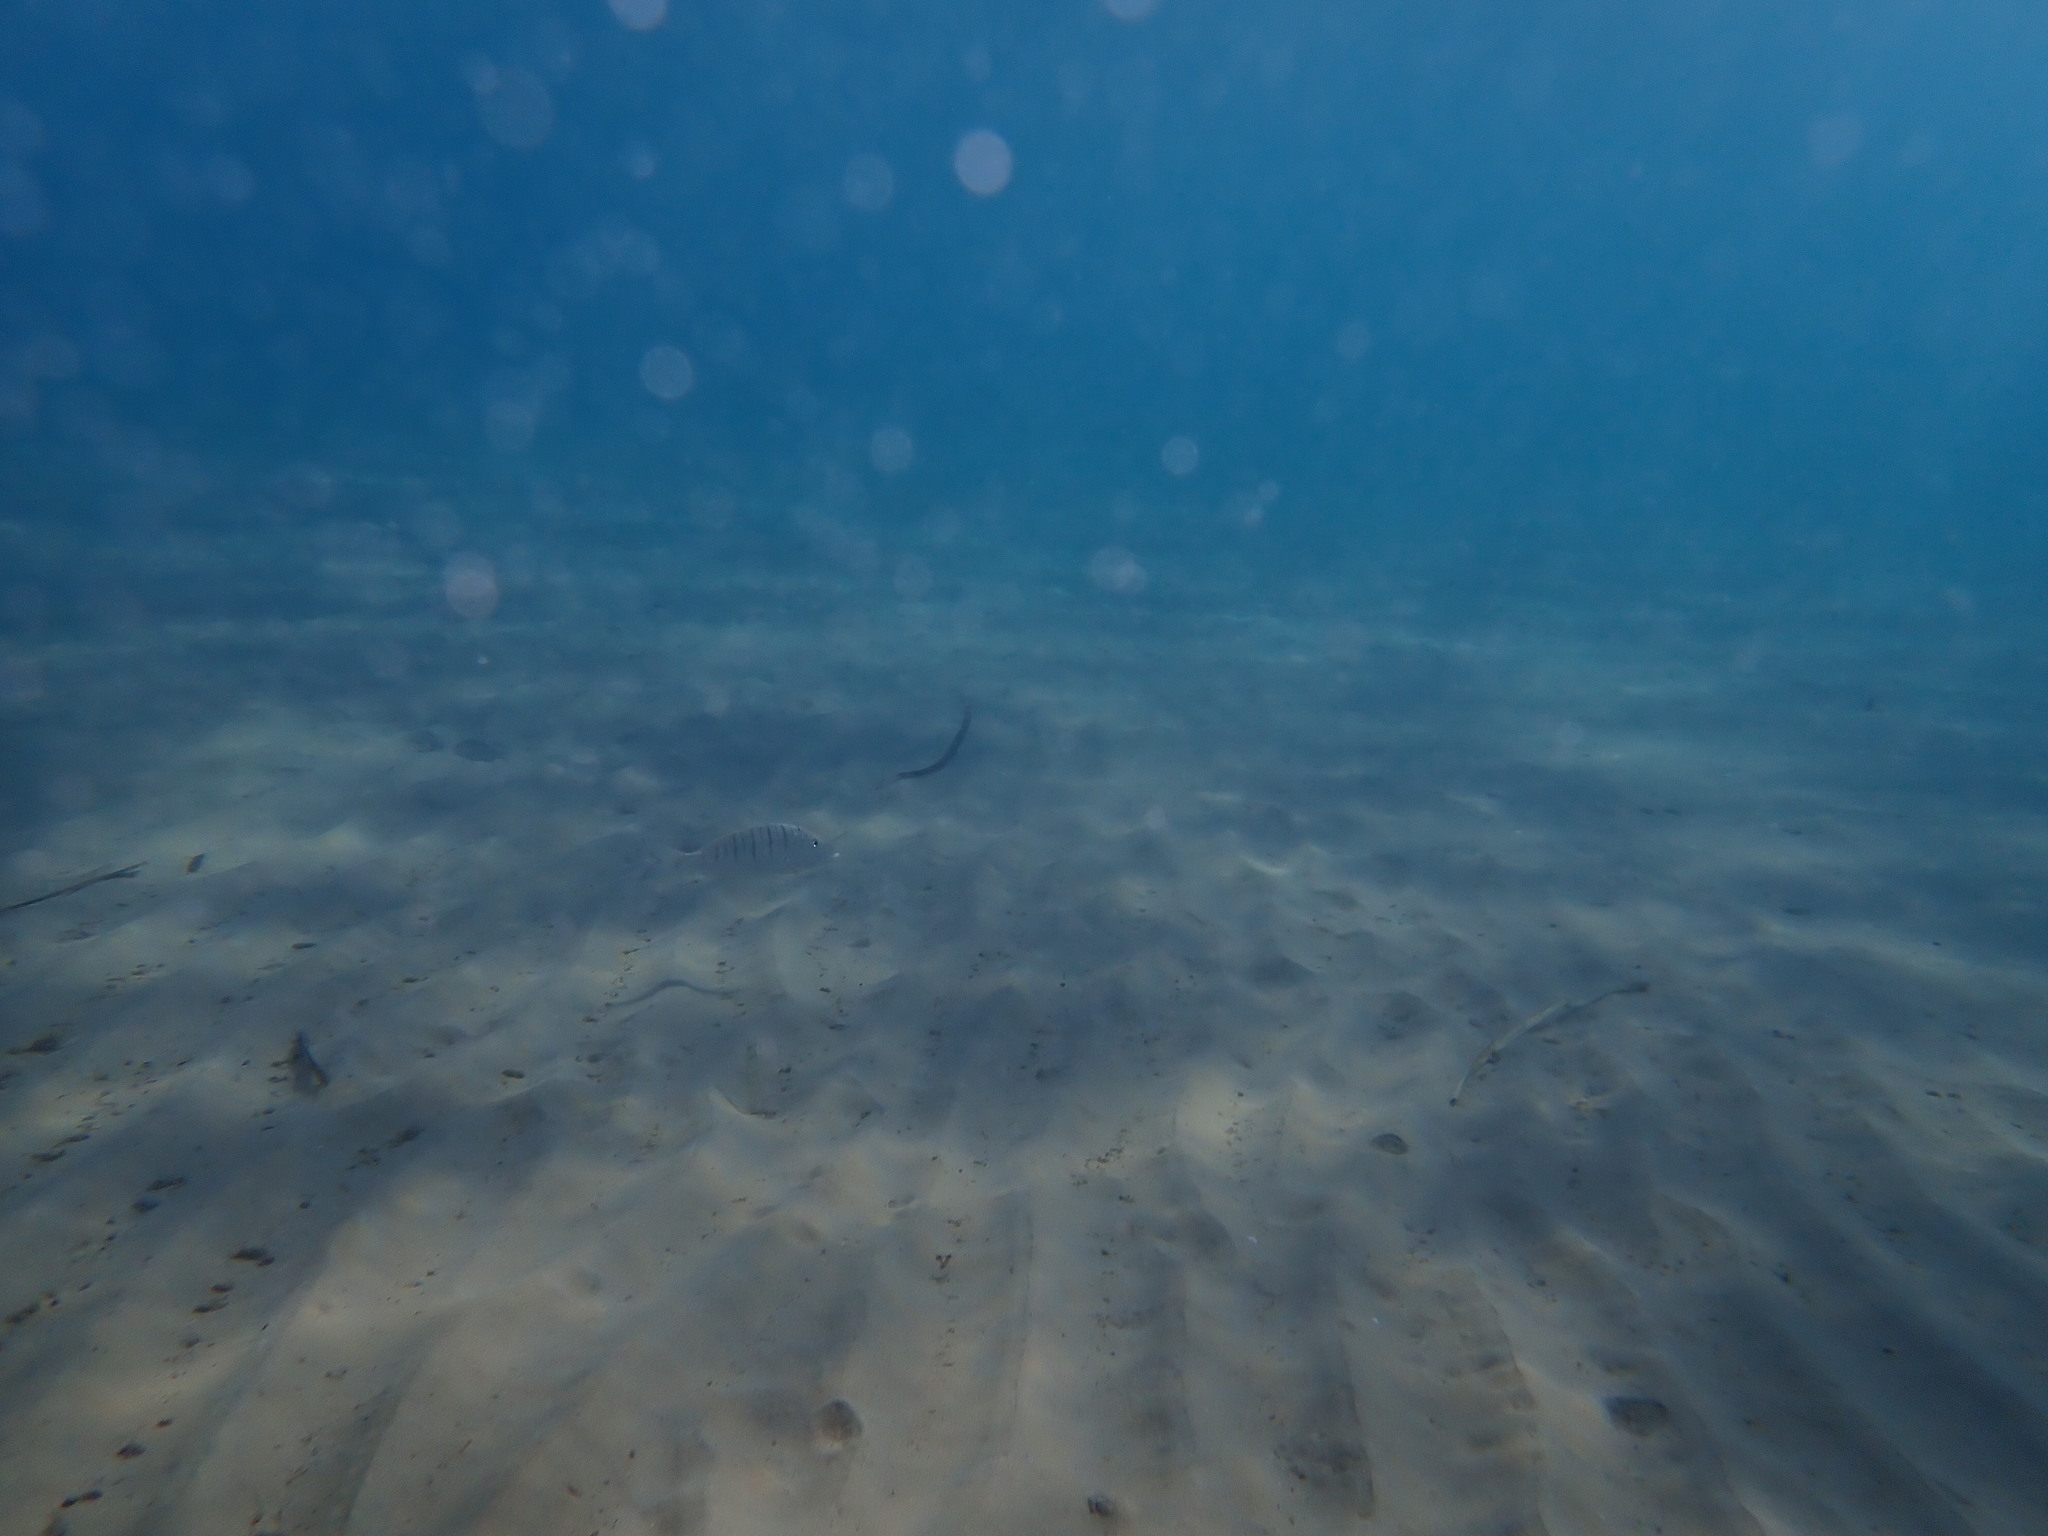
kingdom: Animalia
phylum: Chordata
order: Perciformes
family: Sparidae
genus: Lithognathus
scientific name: Lithognathus mormyrus
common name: Sand steenbras
